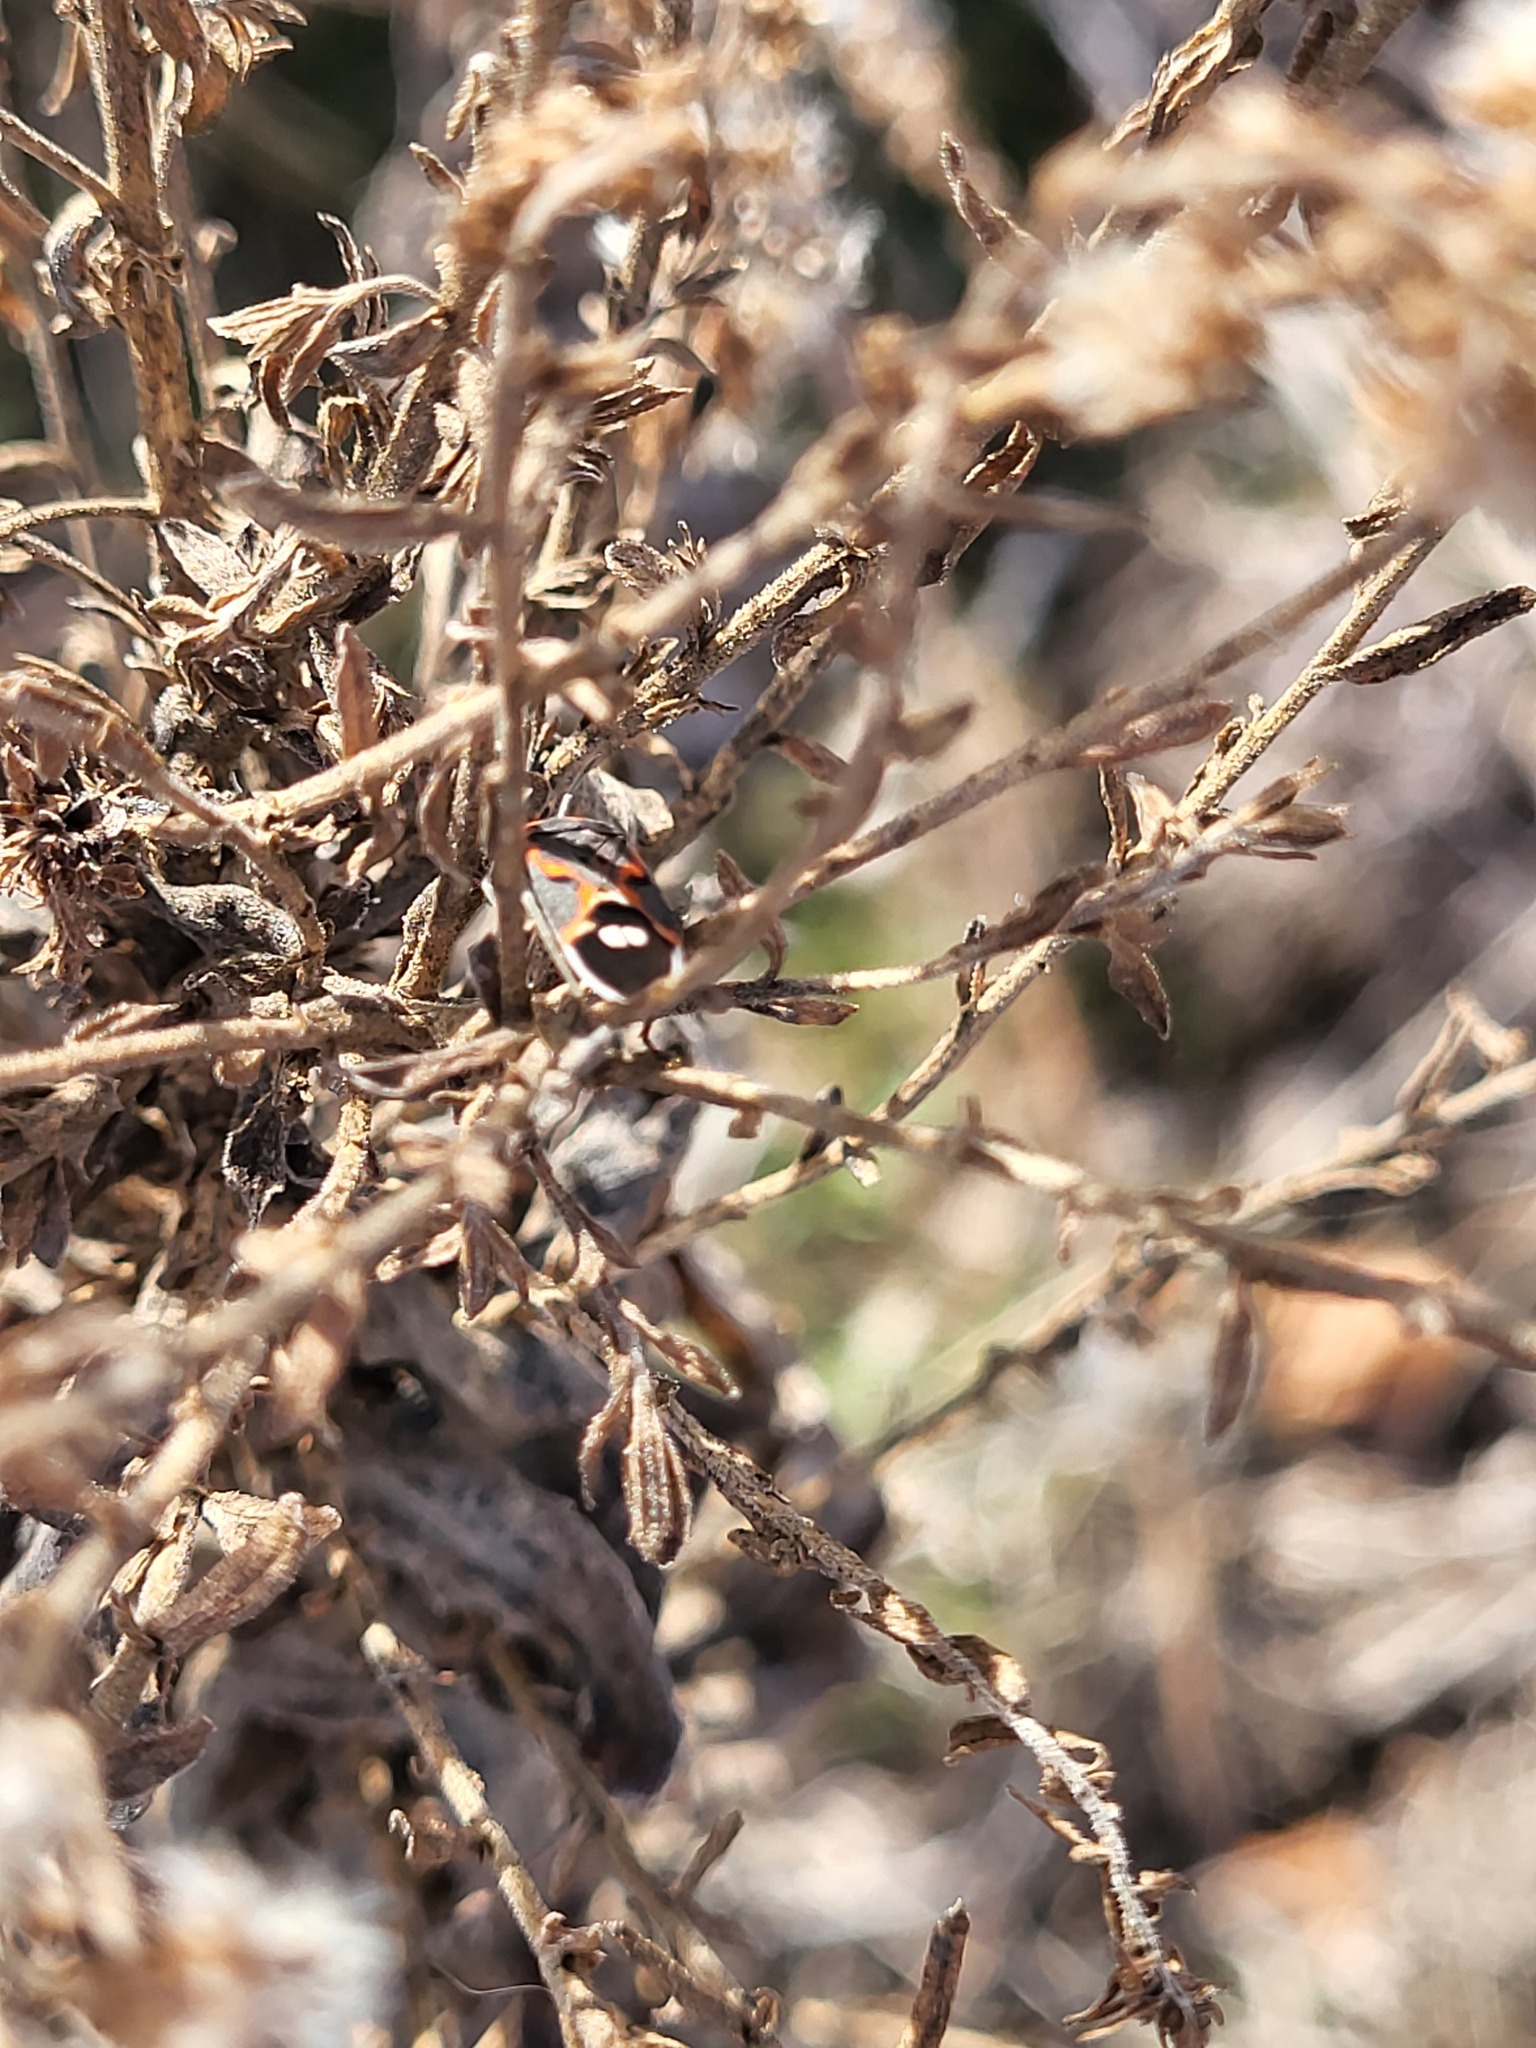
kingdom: Animalia
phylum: Arthropoda
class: Insecta
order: Hemiptera
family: Lygaeidae
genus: Lygaeus
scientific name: Lygaeus kalmii
